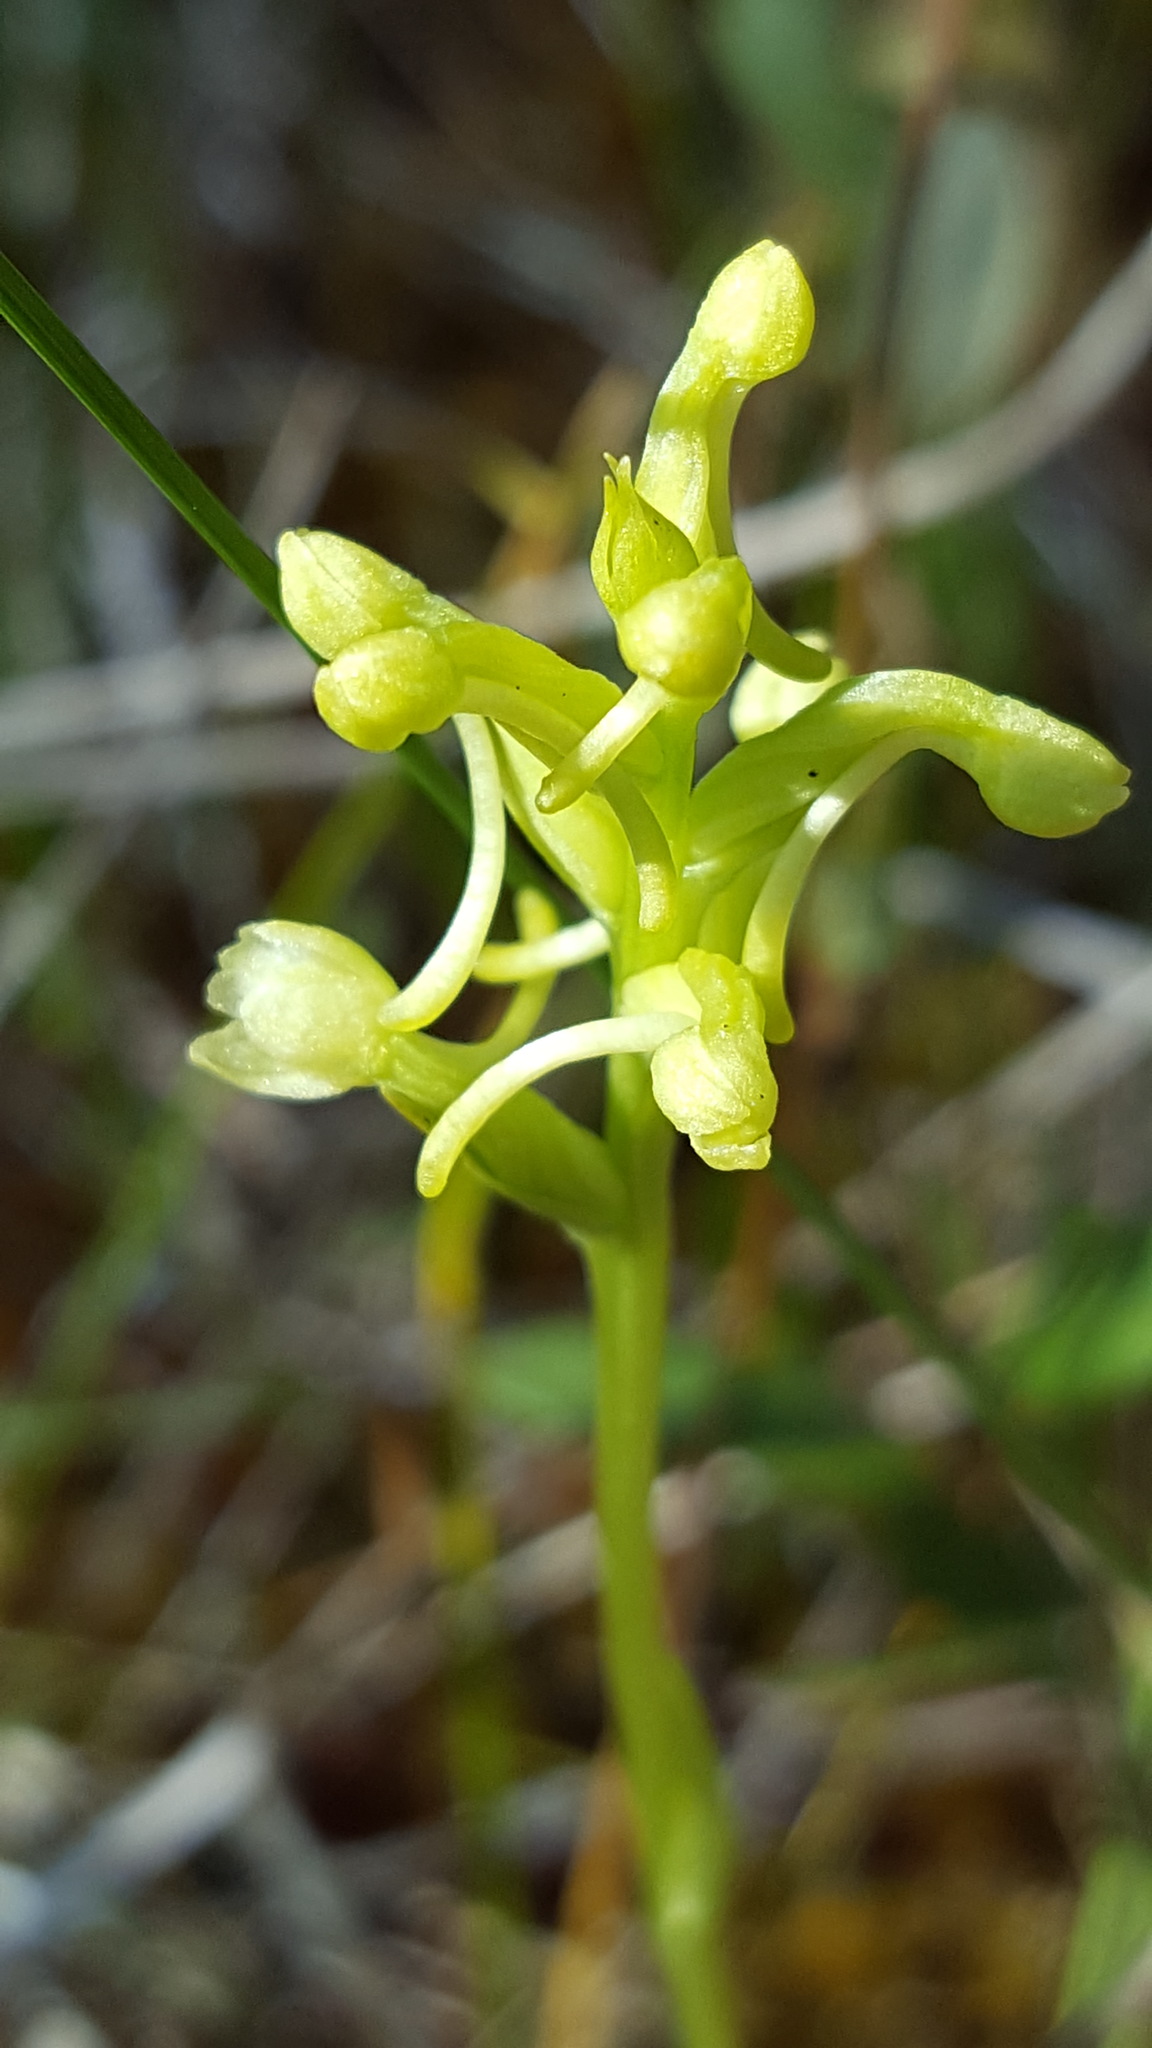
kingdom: Plantae
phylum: Tracheophyta
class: Liliopsida
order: Asparagales
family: Orchidaceae
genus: Platanthera
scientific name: Platanthera clavellata
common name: Club-spur orchid
